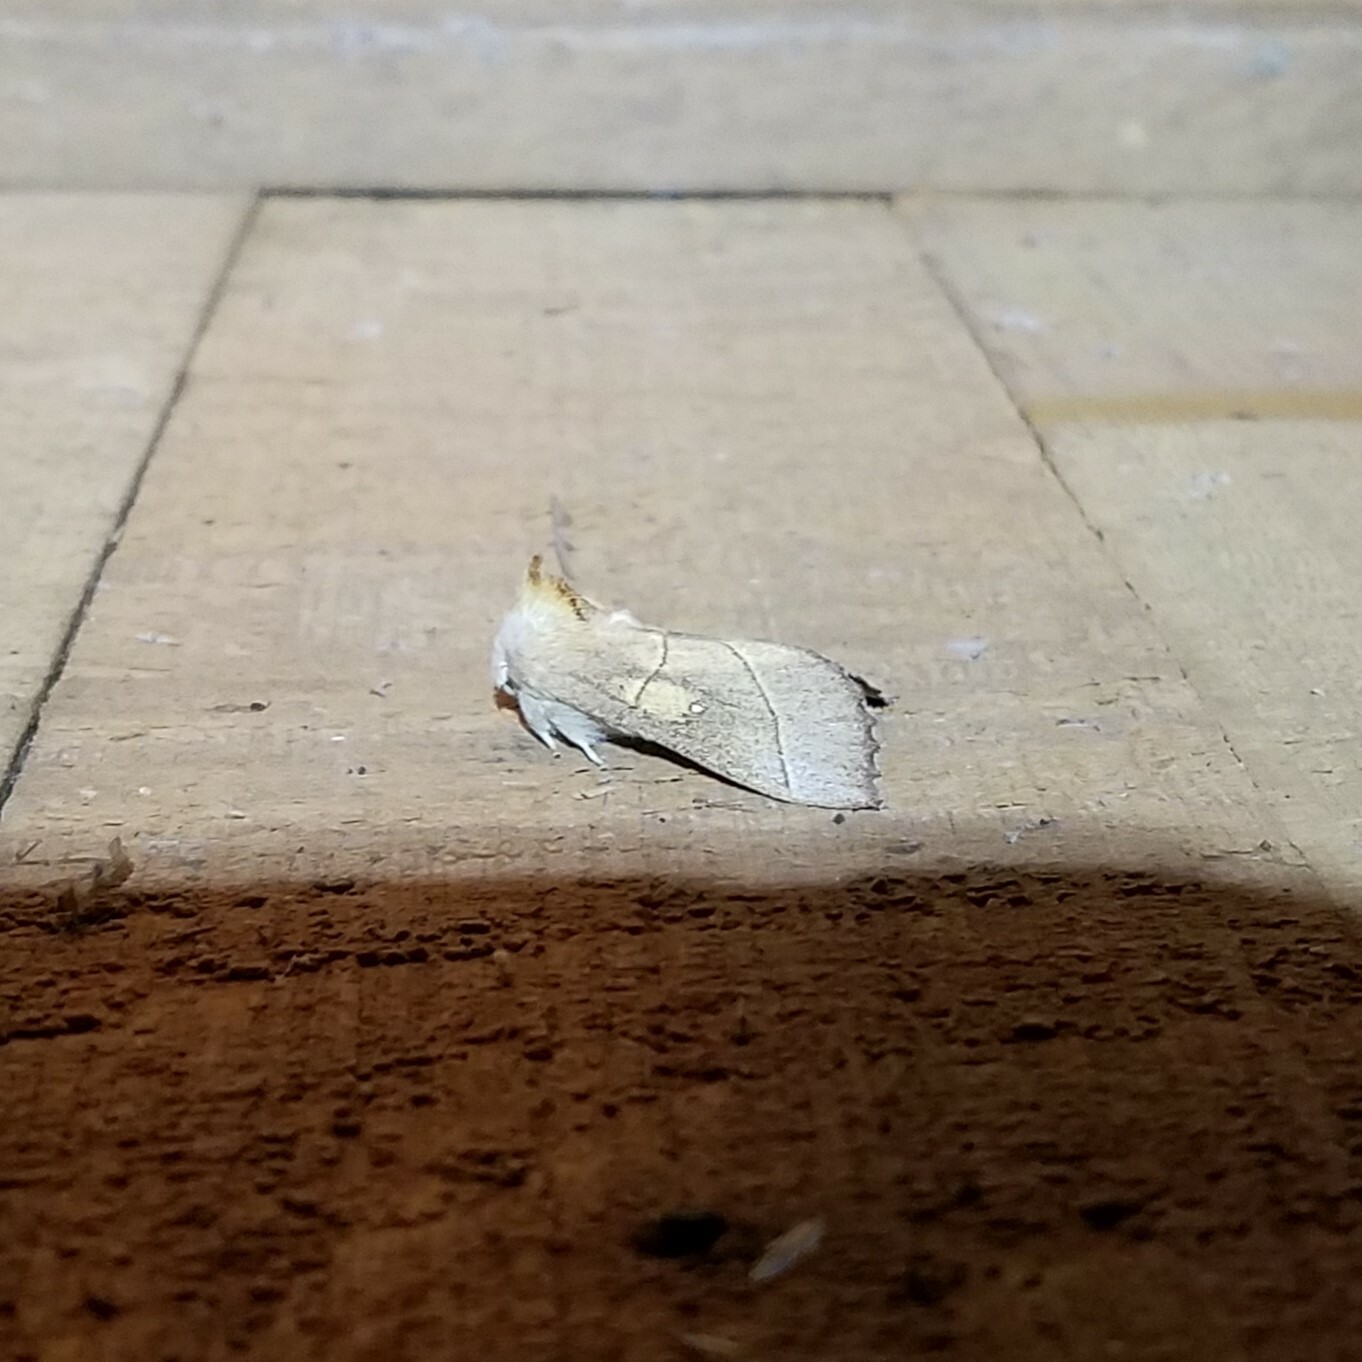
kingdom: Animalia
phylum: Arthropoda
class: Insecta
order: Lepidoptera
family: Notodontidae
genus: Nadata
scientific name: Nadata gibbosa
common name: White-dotted prominent
